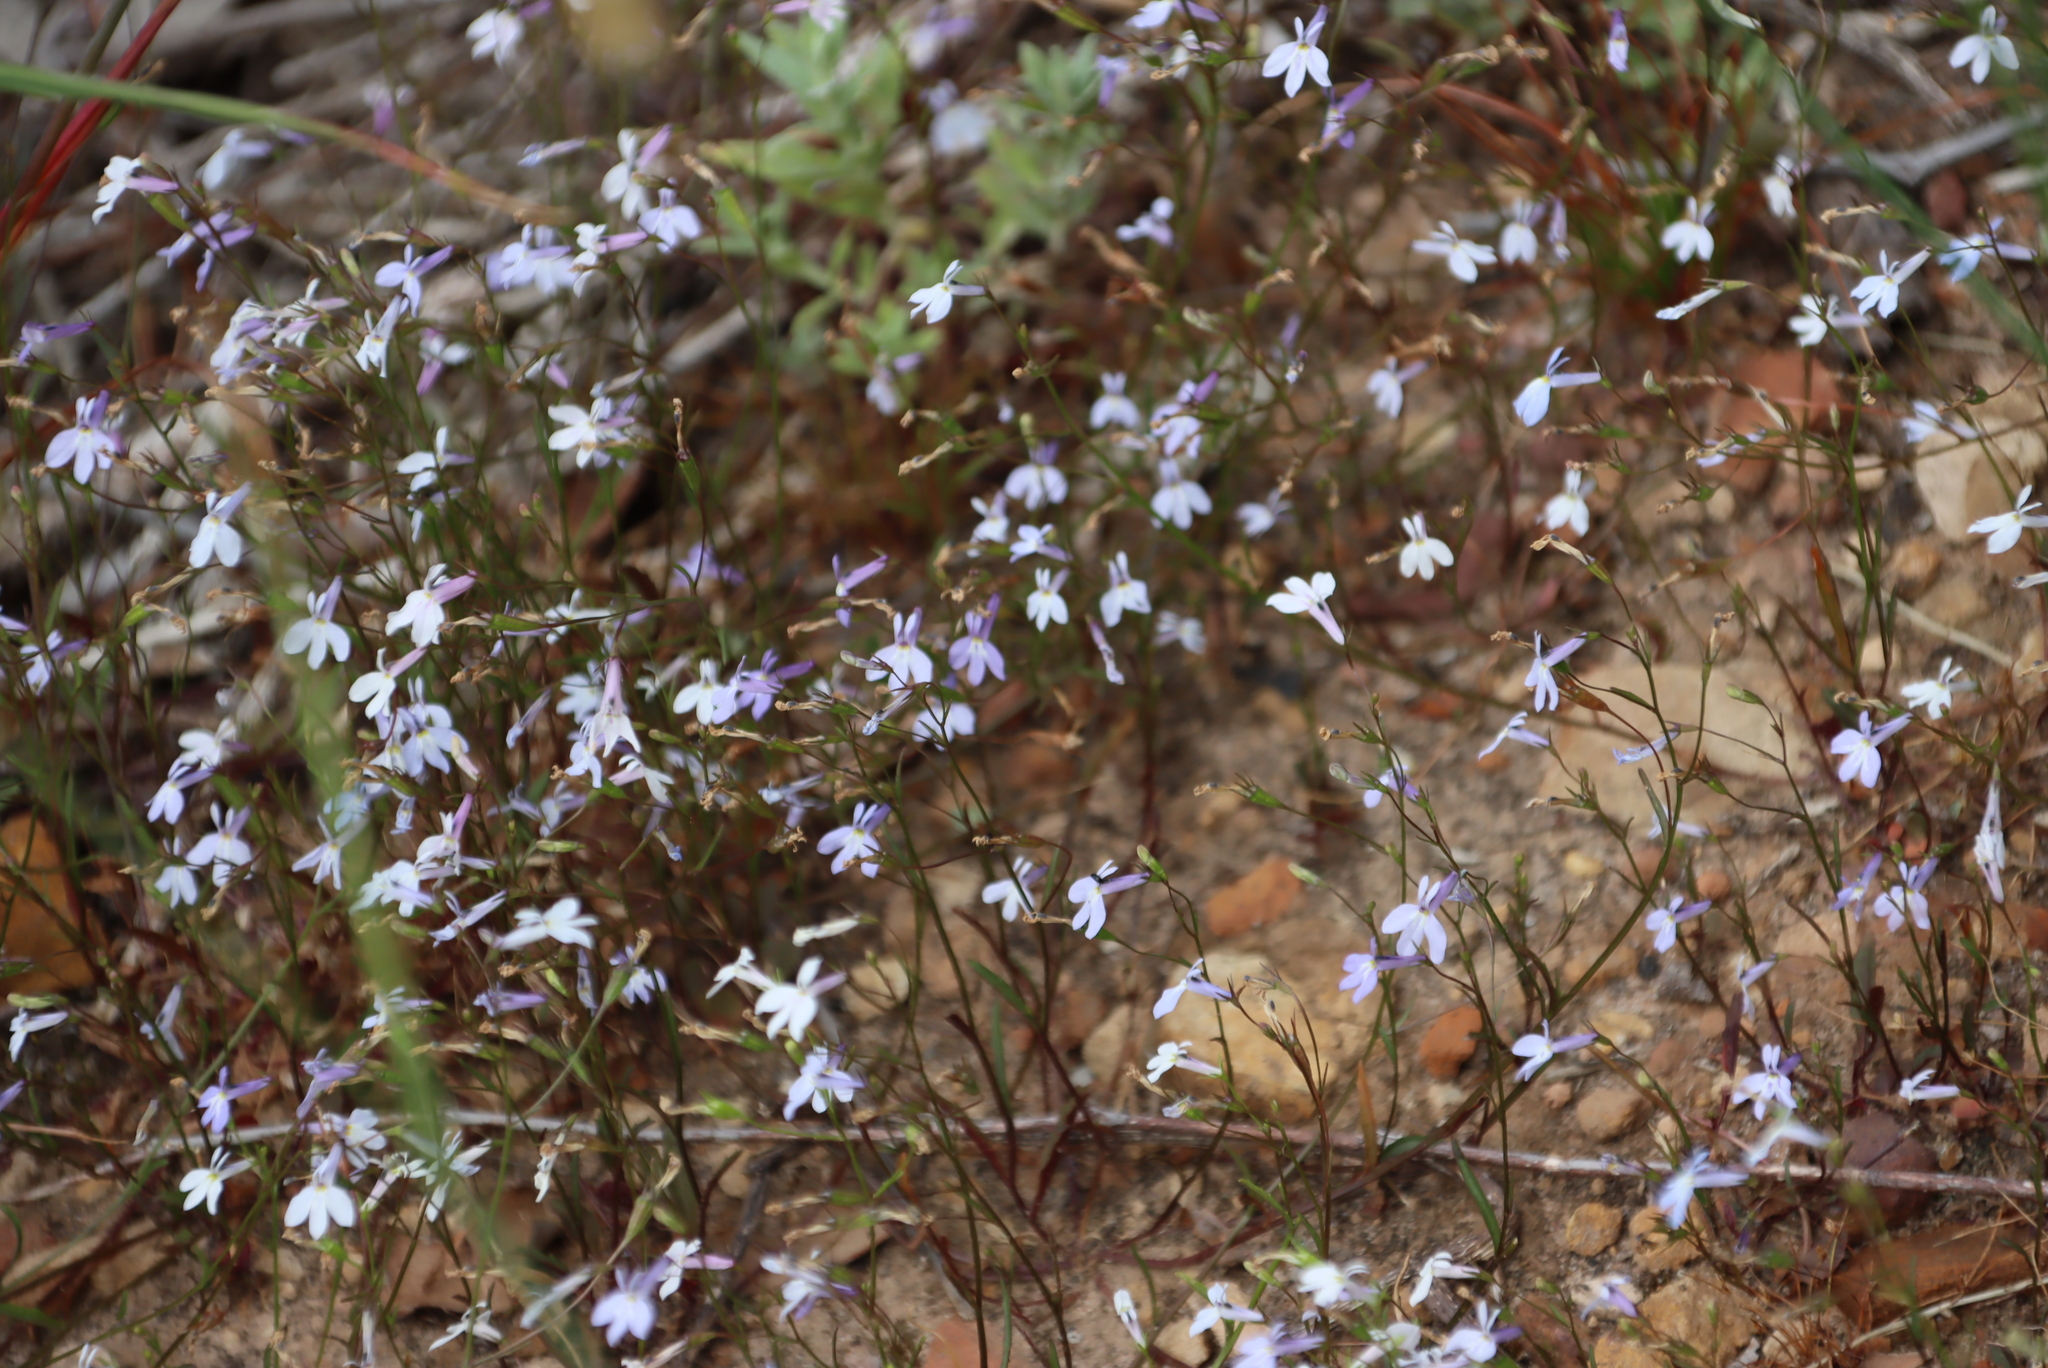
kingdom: Plantae
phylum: Tracheophyta
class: Magnoliopsida
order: Asterales
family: Campanulaceae
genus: Lobelia
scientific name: Lobelia erinus
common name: Edging lobelia
